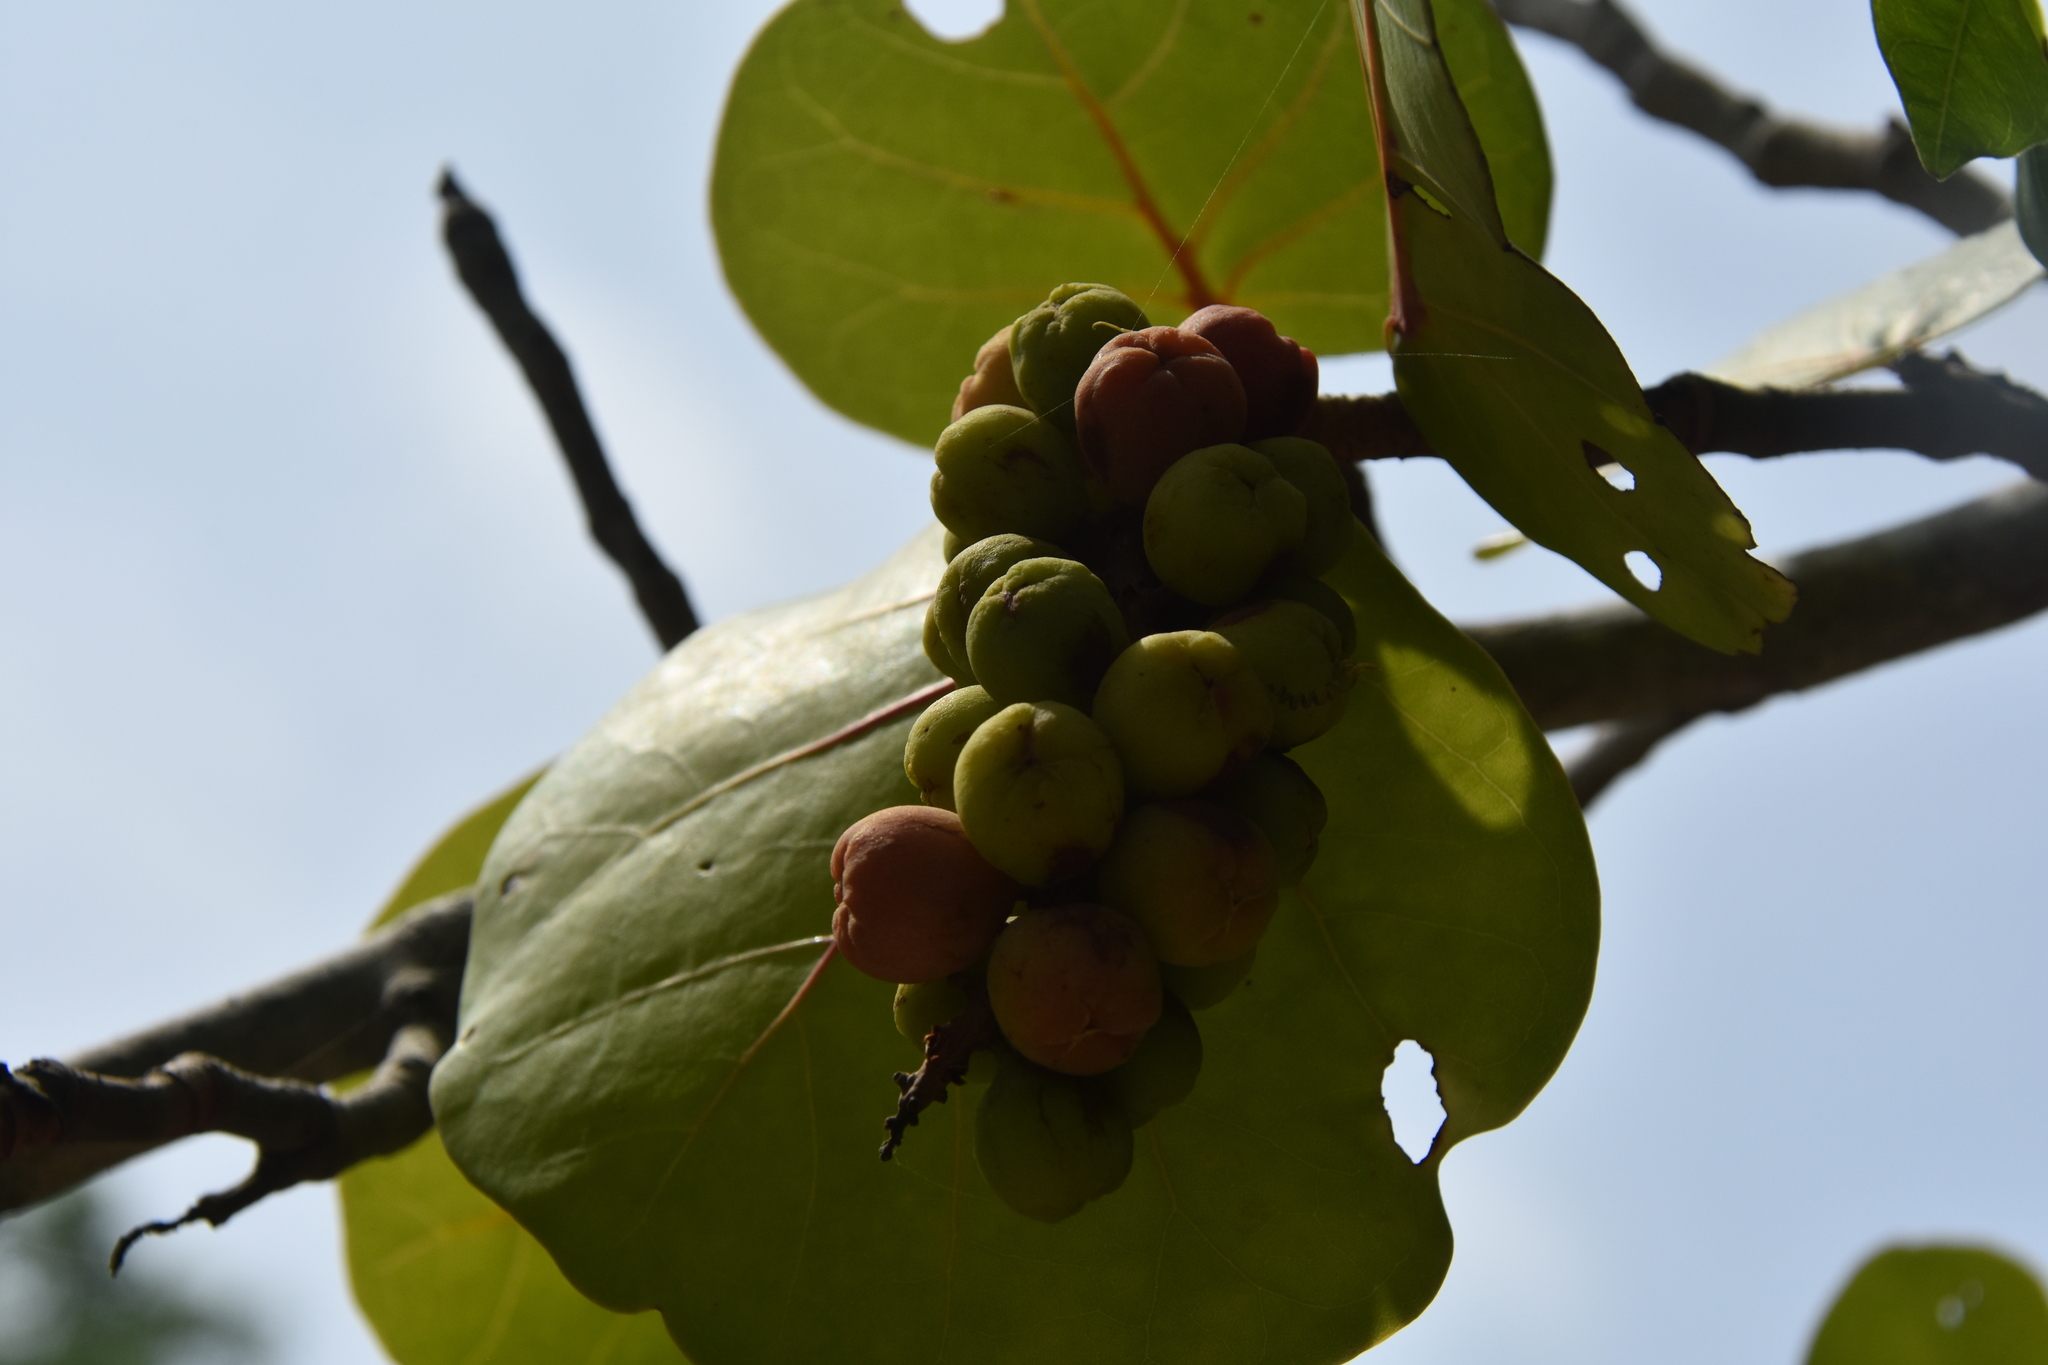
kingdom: Plantae
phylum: Tracheophyta
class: Magnoliopsida
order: Caryophyllales
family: Polygonaceae
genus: Coccoloba
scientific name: Coccoloba uvifera
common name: Seagrape
